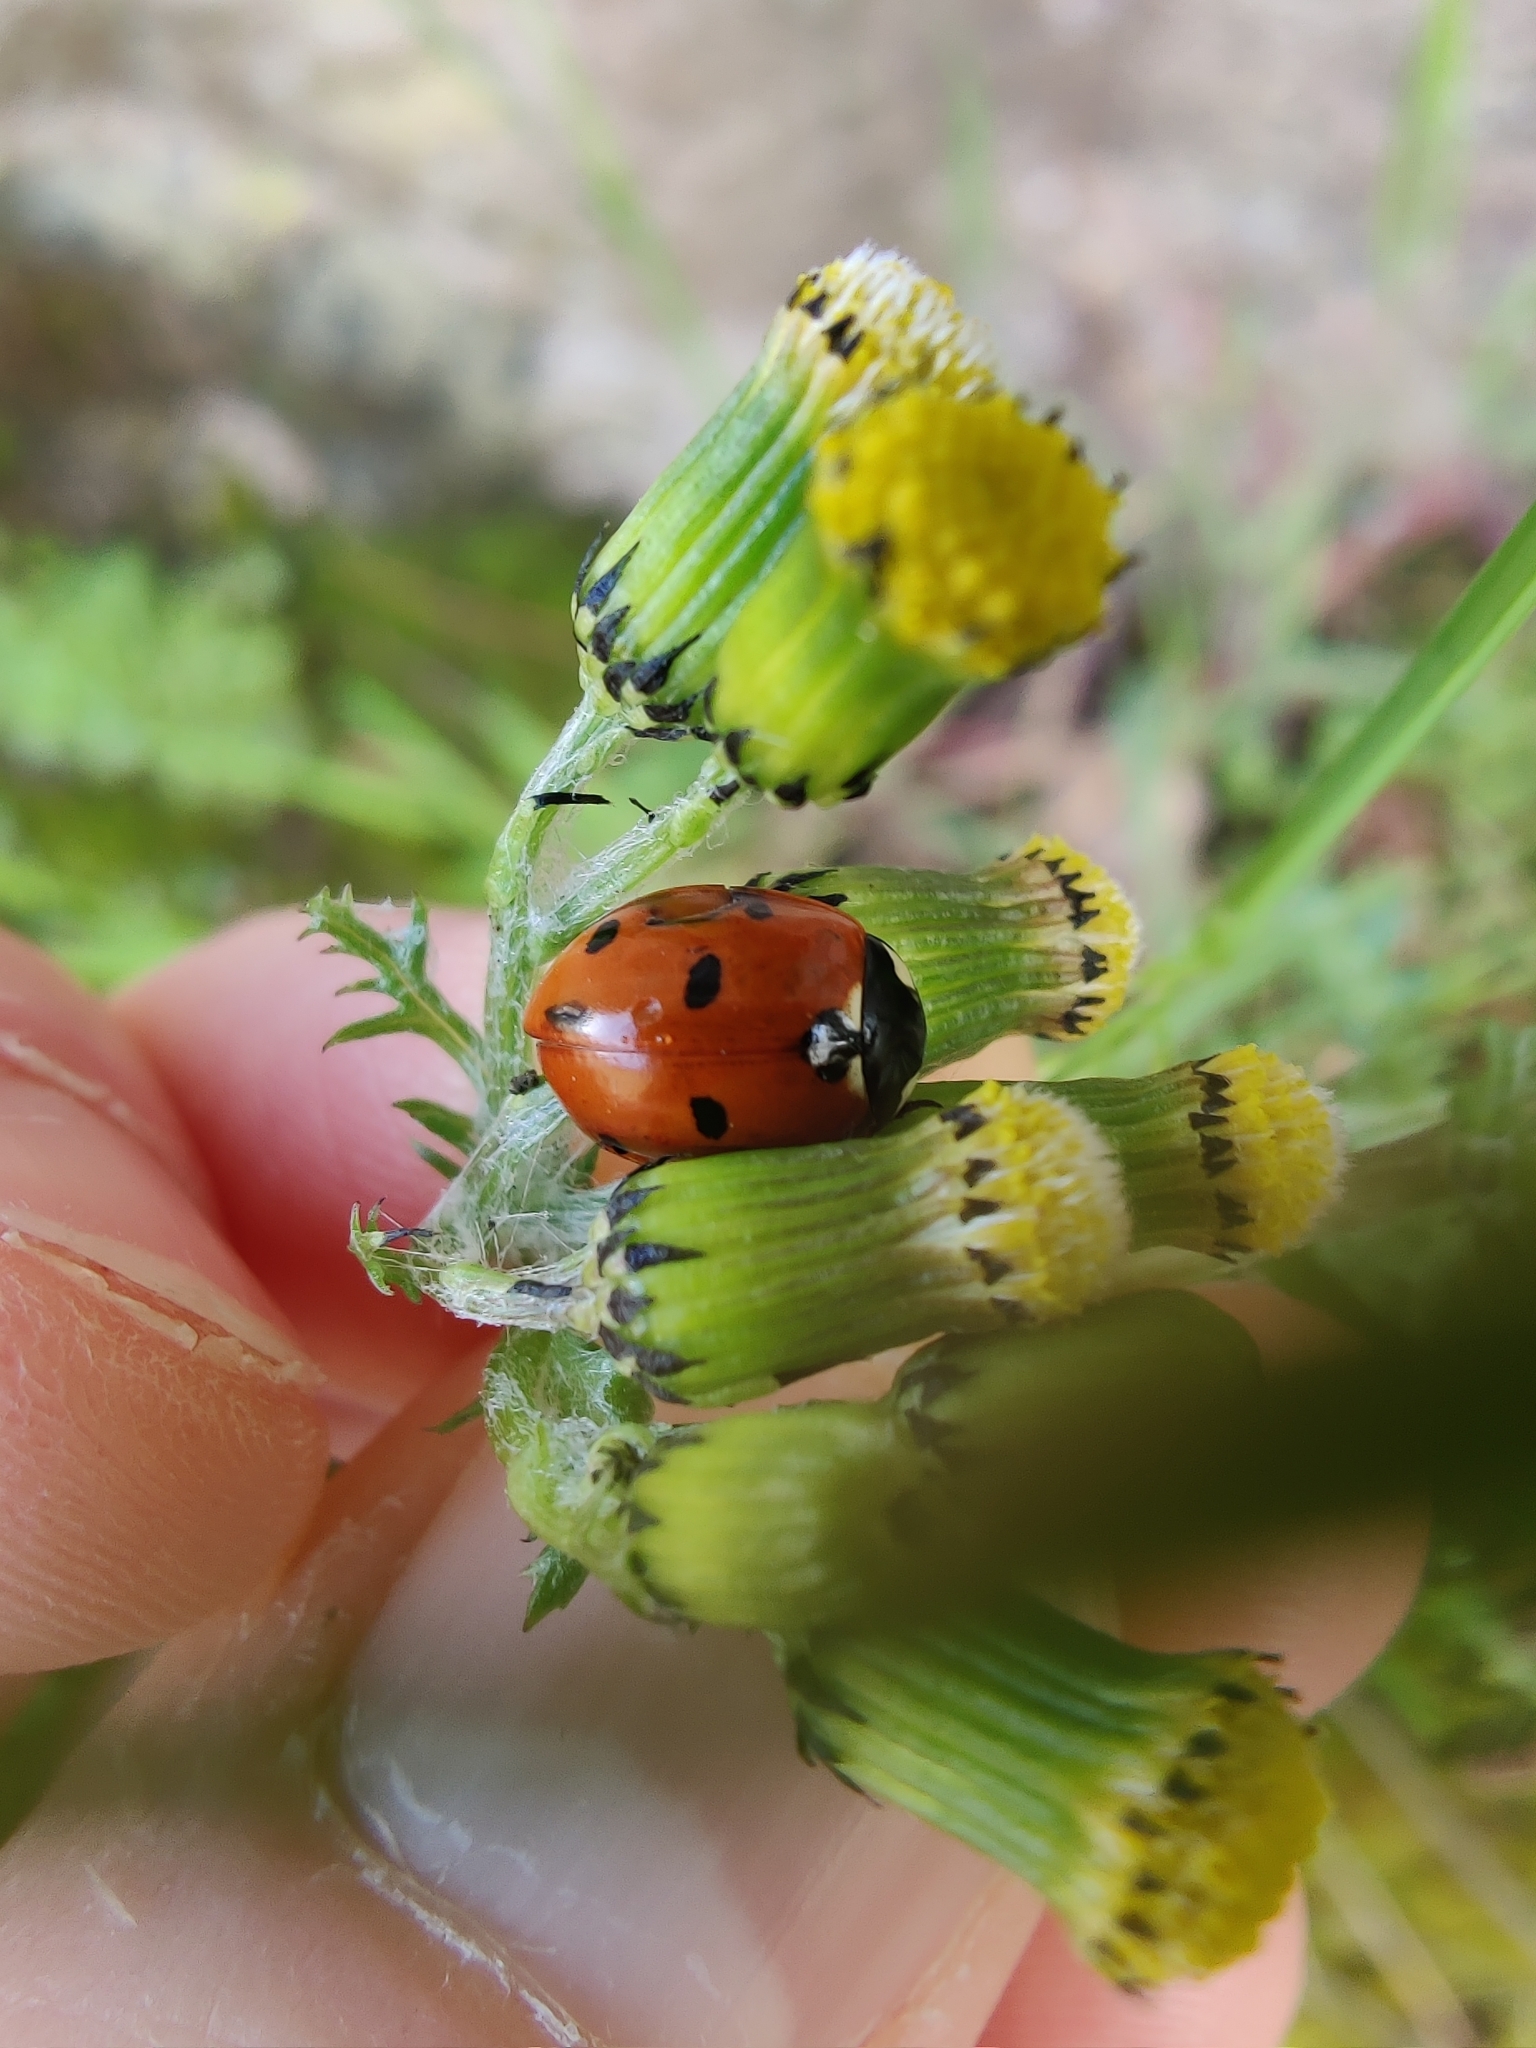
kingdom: Animalia
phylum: Arthropoda
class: Insecta
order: Coleoptera
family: Coccinellidae
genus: Coccinella
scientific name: Coccinella septempunctata
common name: Sevenspotted lady beetle
